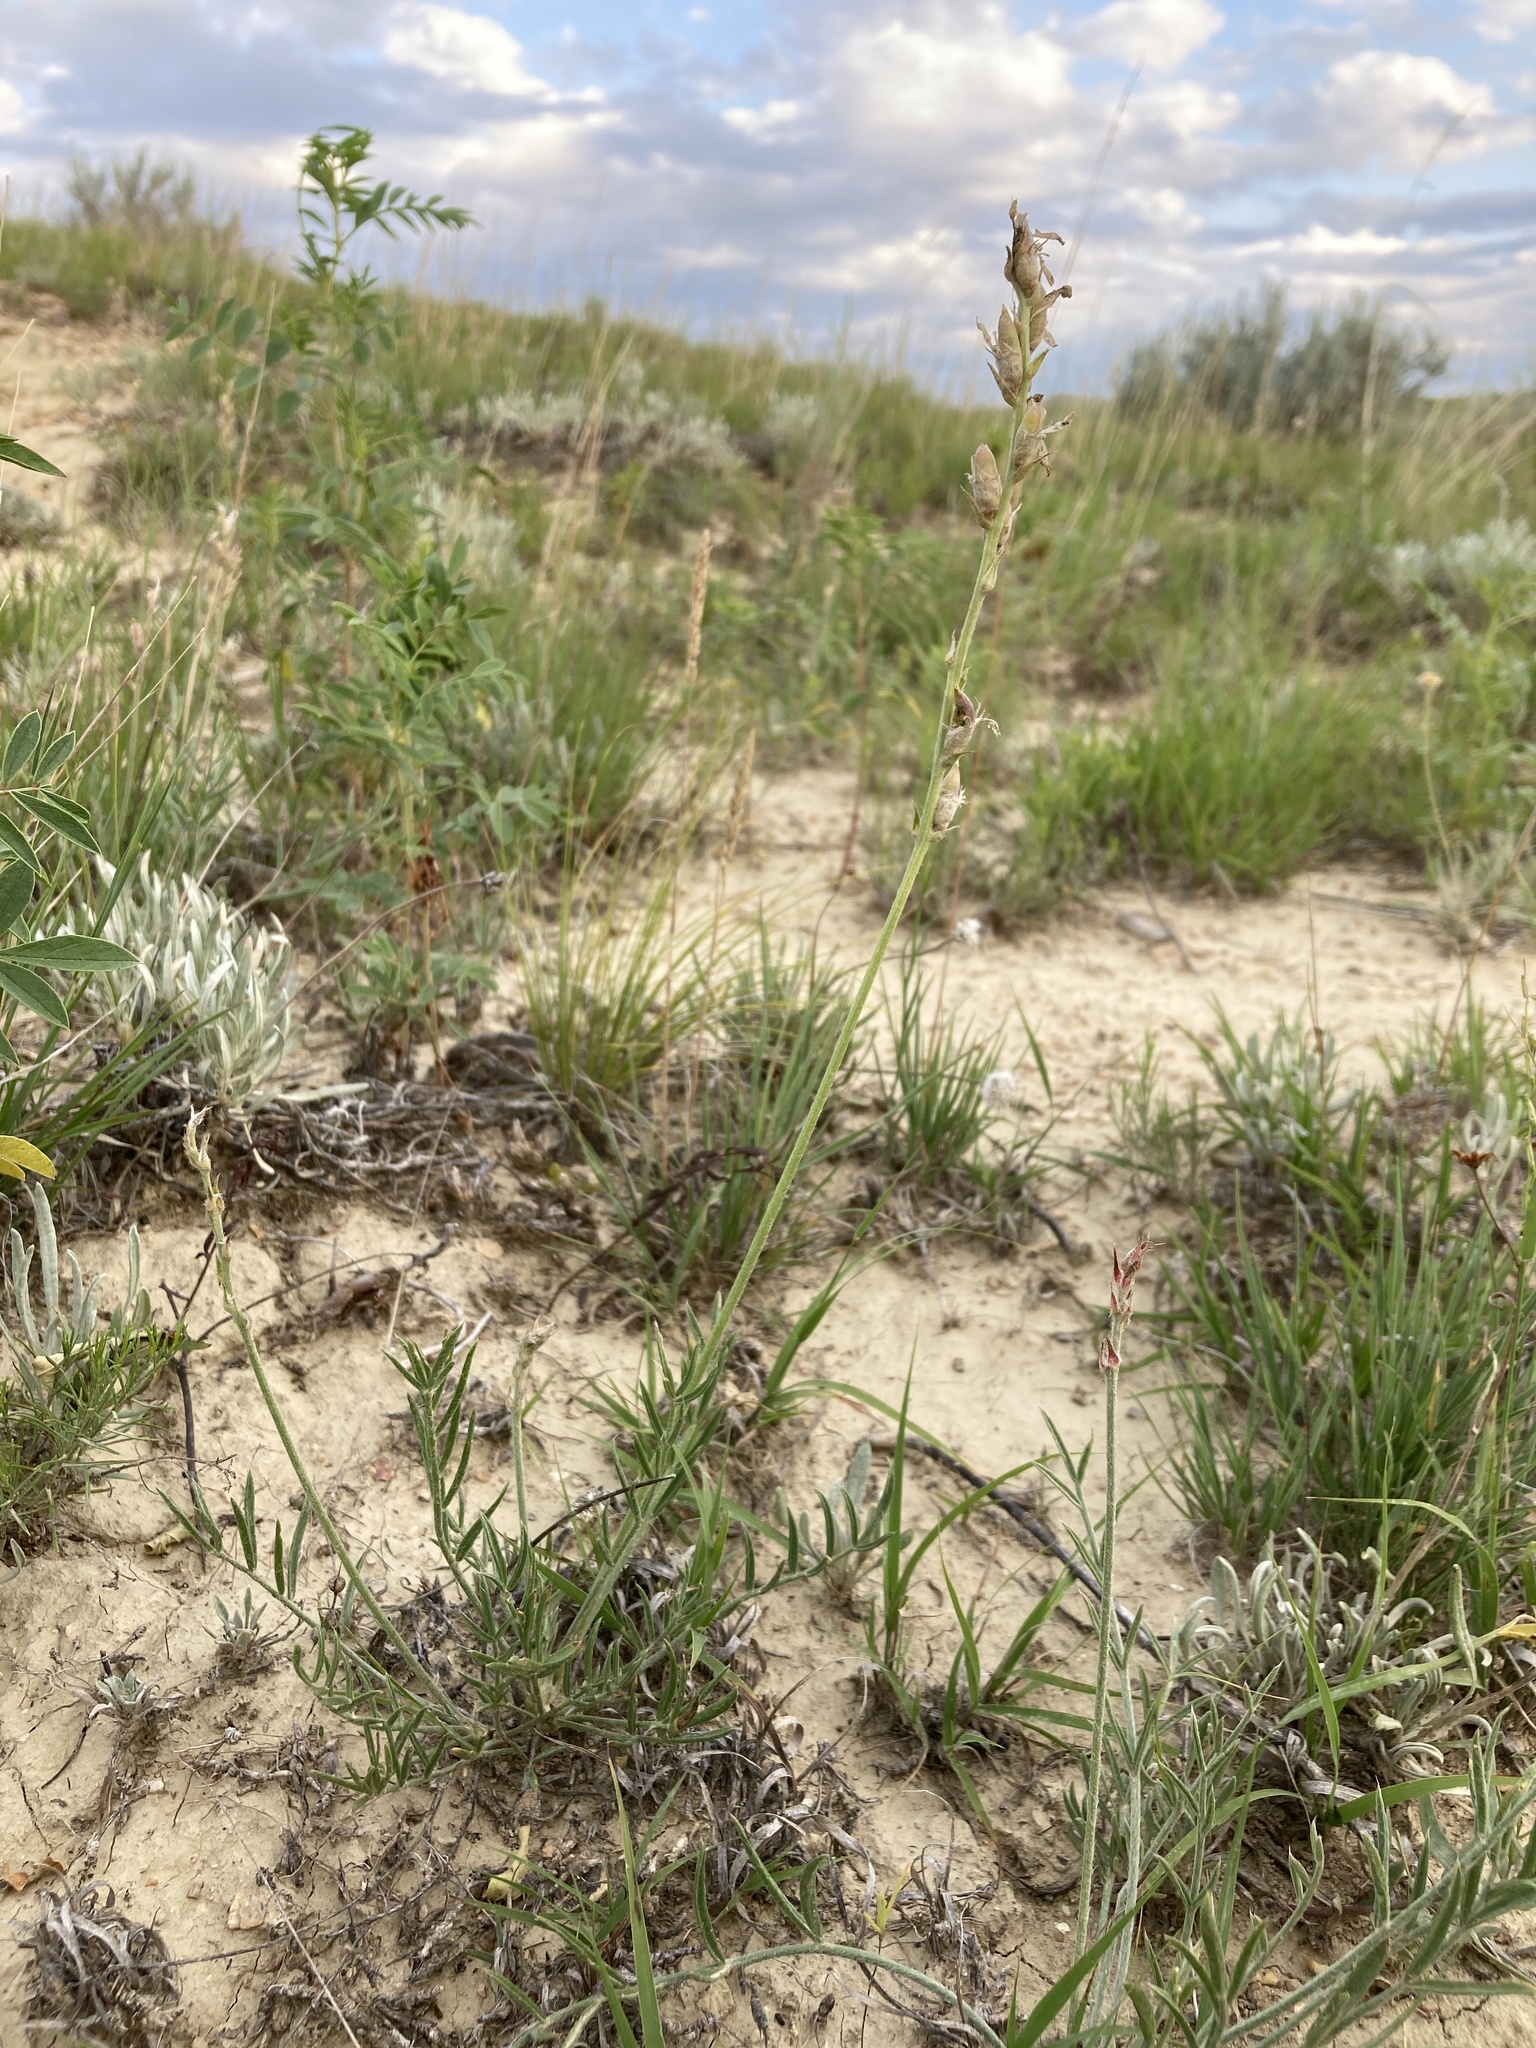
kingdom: Plantae
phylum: Tracheophyta
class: Magnoliopsida
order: Fabales
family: Fabaceae
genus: Oxytropis
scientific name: Oxytropis lambertii
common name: Purple locoweed
